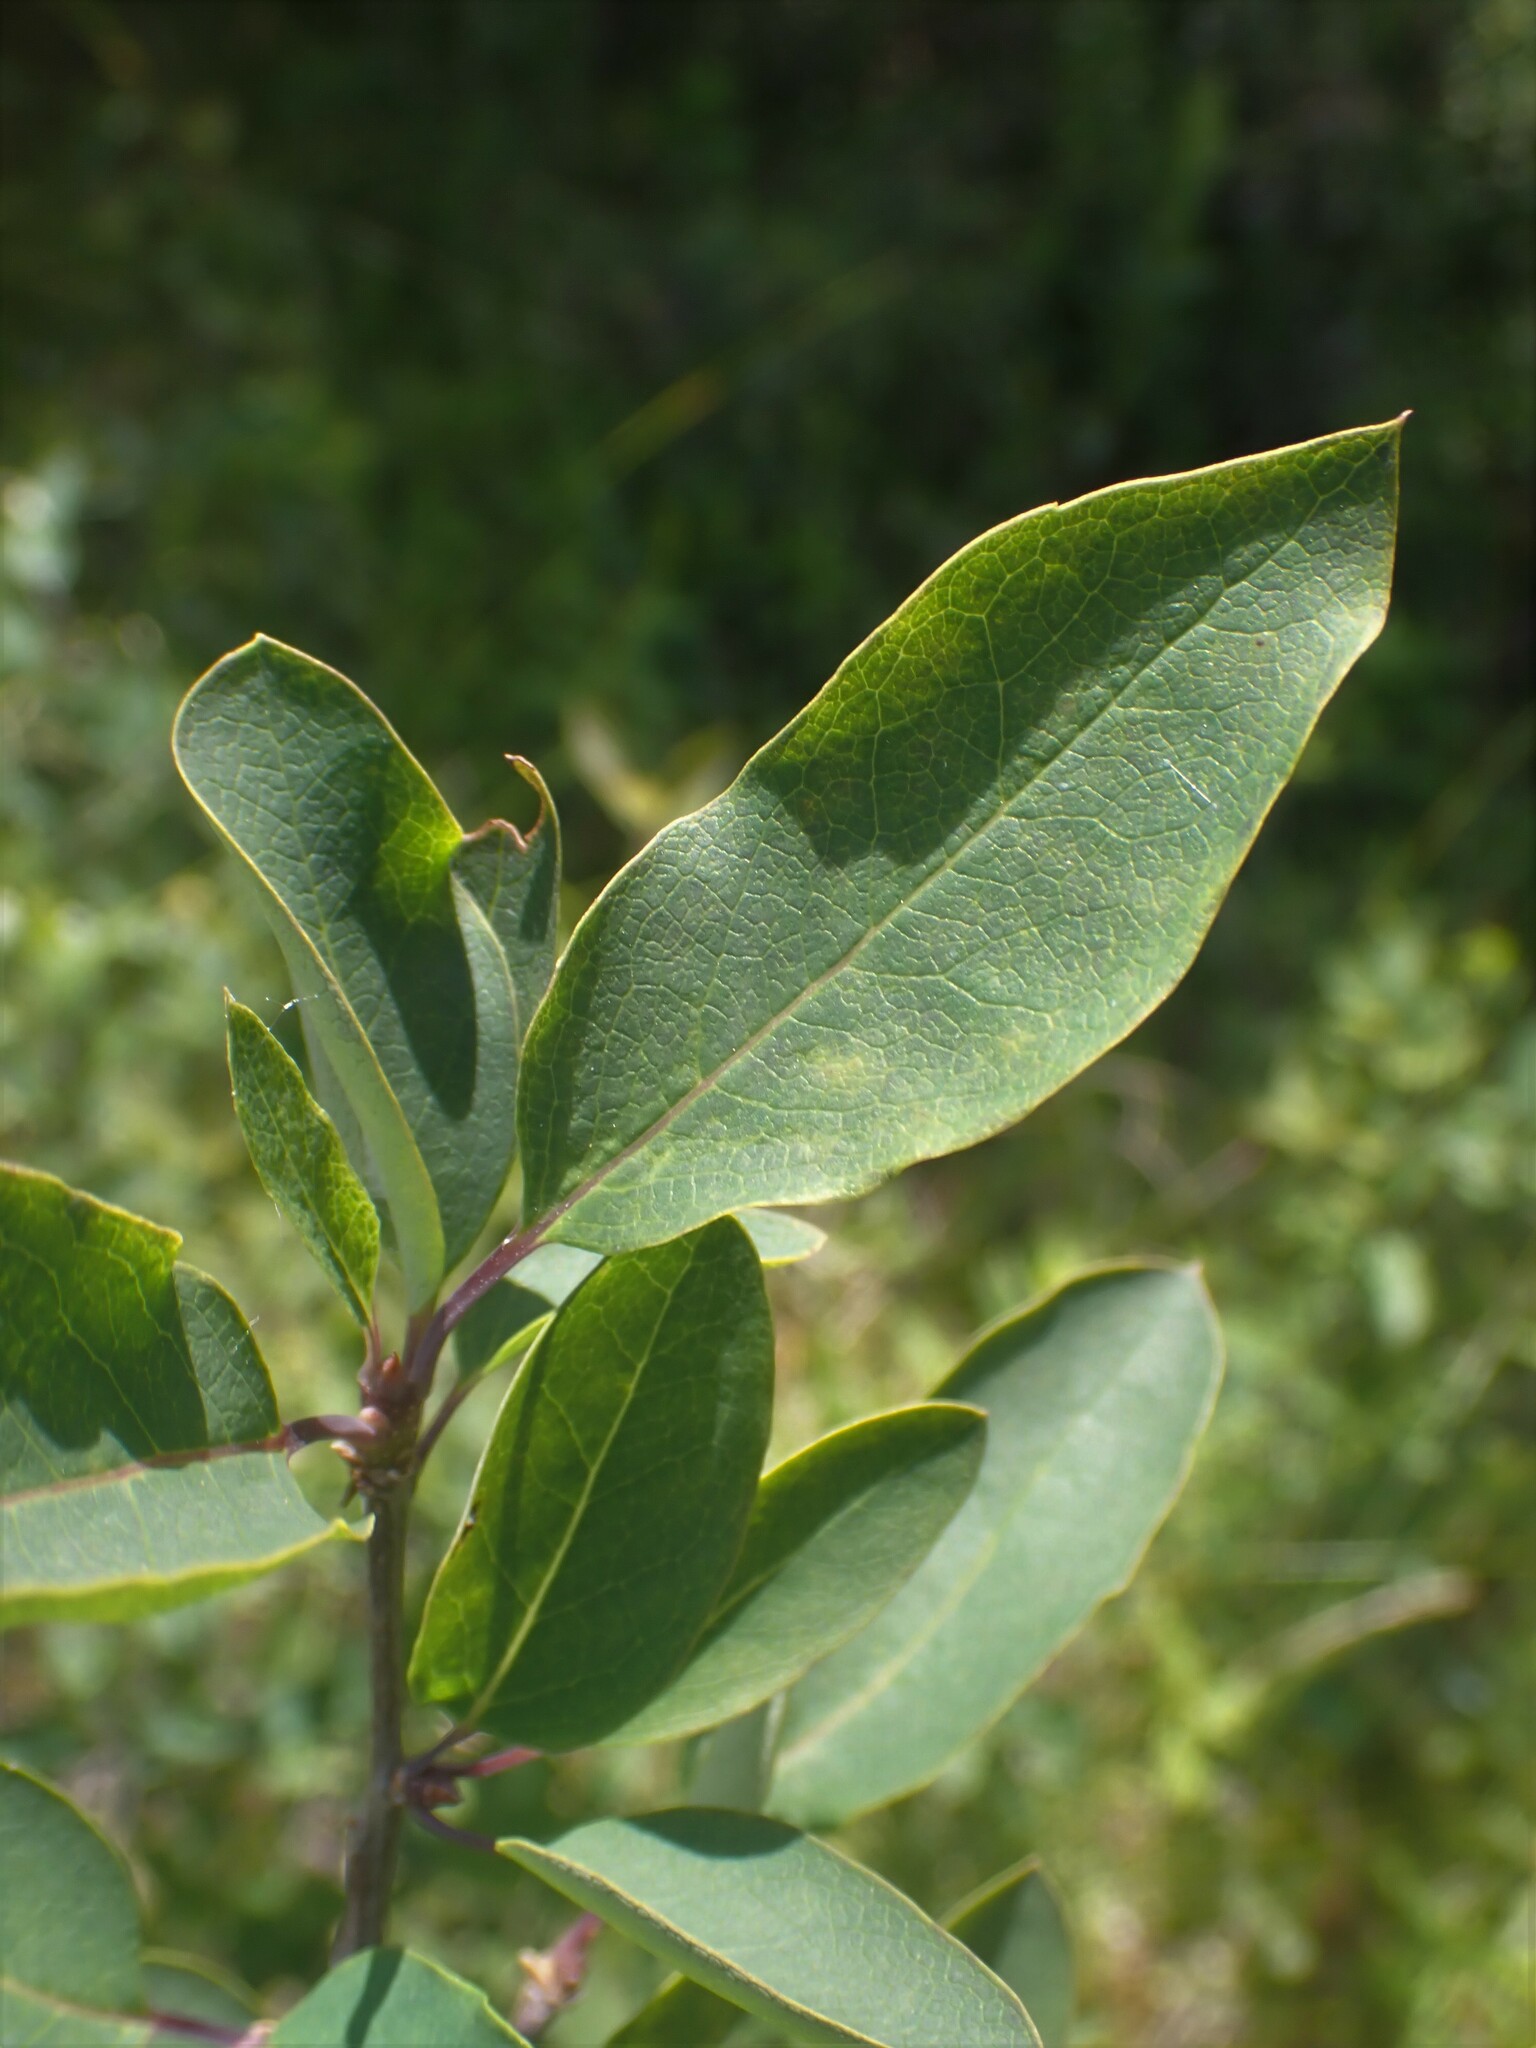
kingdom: Plantae
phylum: Tracheophyta
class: Magnoliopsida
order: Aquifoliales
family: Aquifoliaceae
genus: Ilex
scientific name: Ilex mucronata
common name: Catberry
